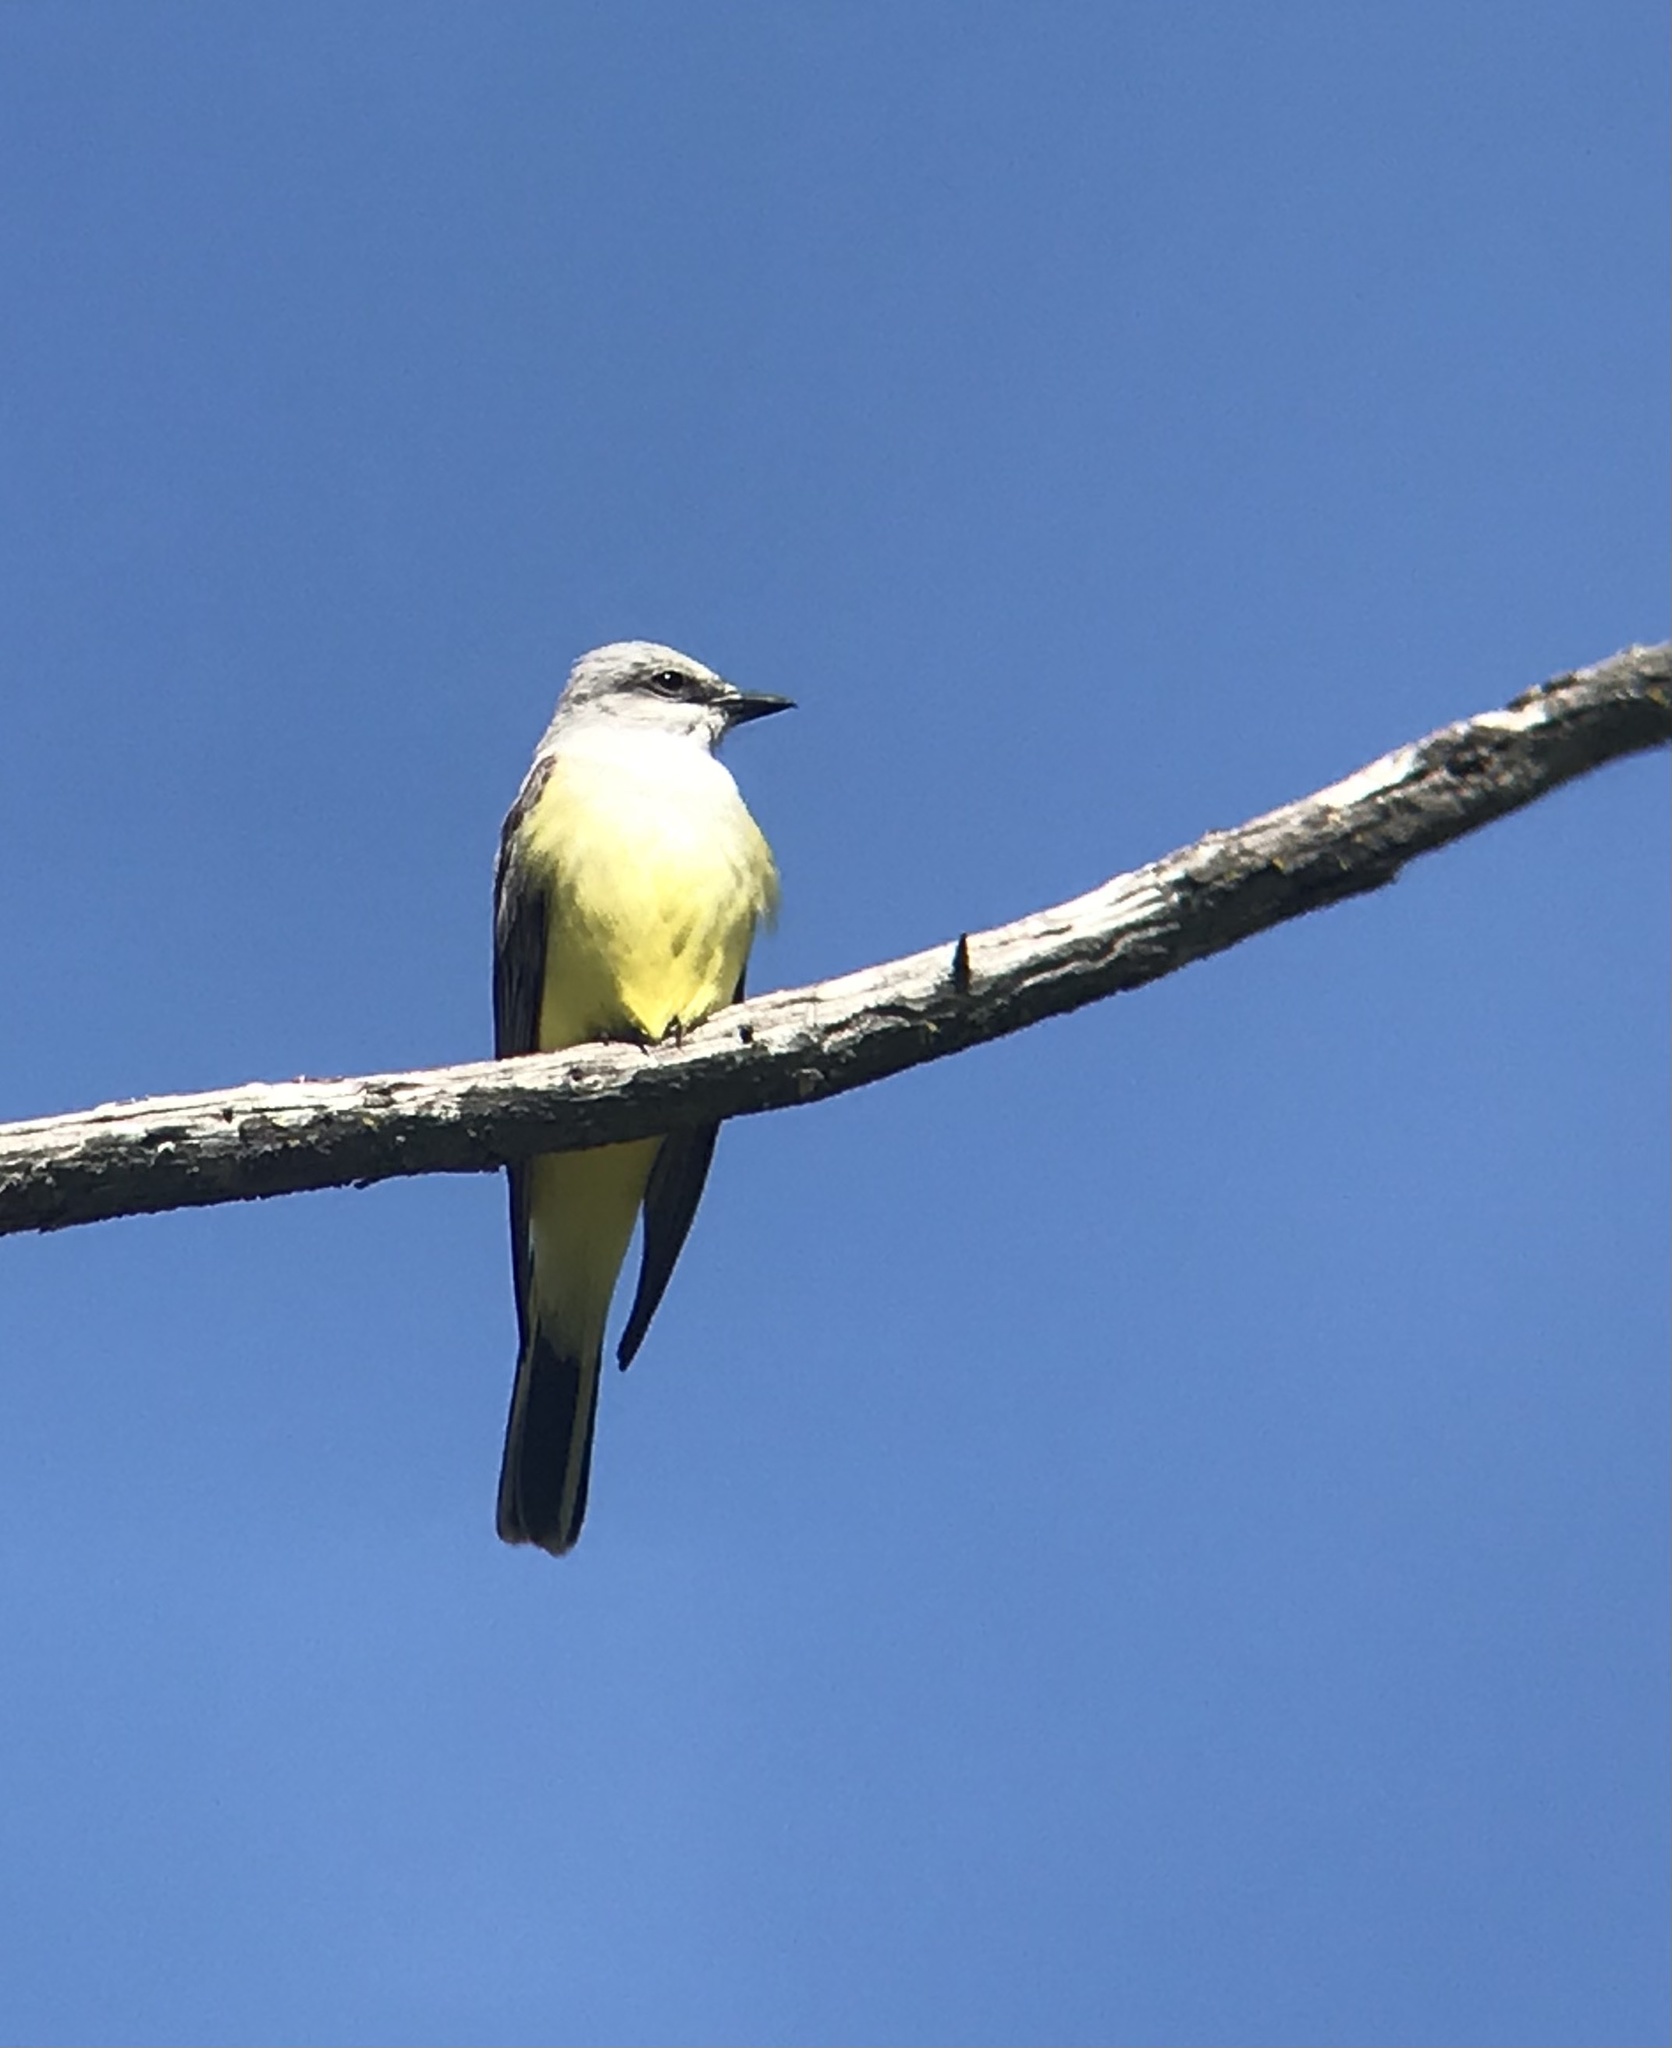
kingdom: Animalia
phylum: Chordata
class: Aves
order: Passeriformes
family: Tyrannidae
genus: Tyrannus
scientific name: Tyrannus verticalis
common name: Western kingbird
